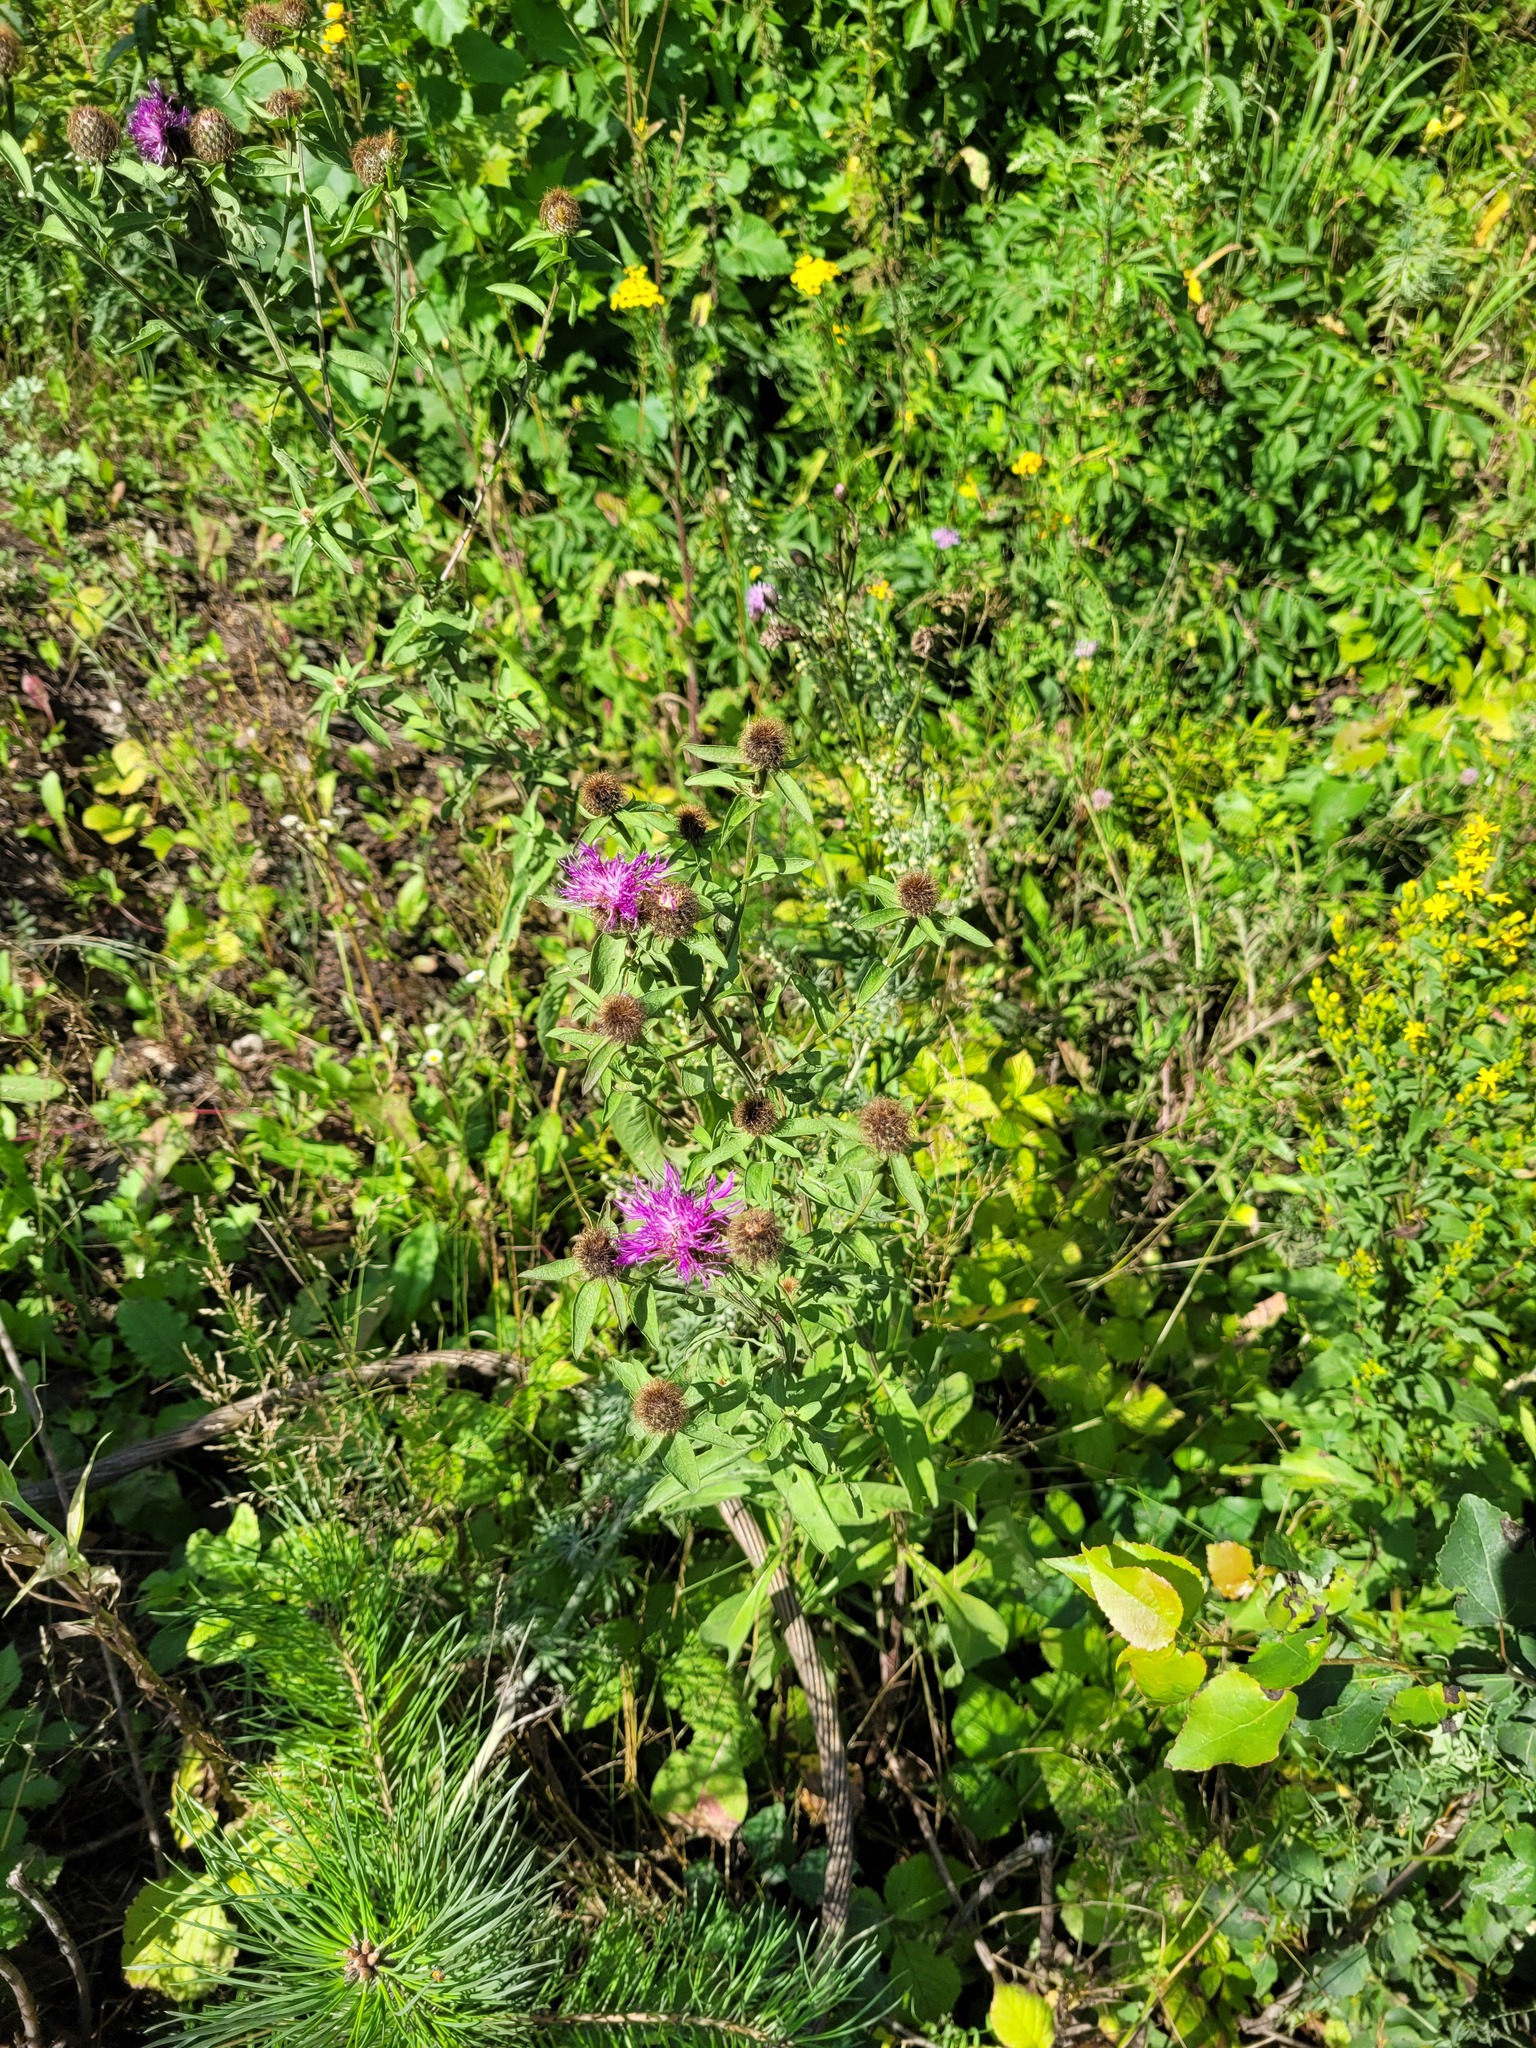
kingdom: Plantae
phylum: Tracheophyta
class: Magnoliopsida
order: Asterales
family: Asteraceae
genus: Centaurea
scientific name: Centaurea pseudophrygia
